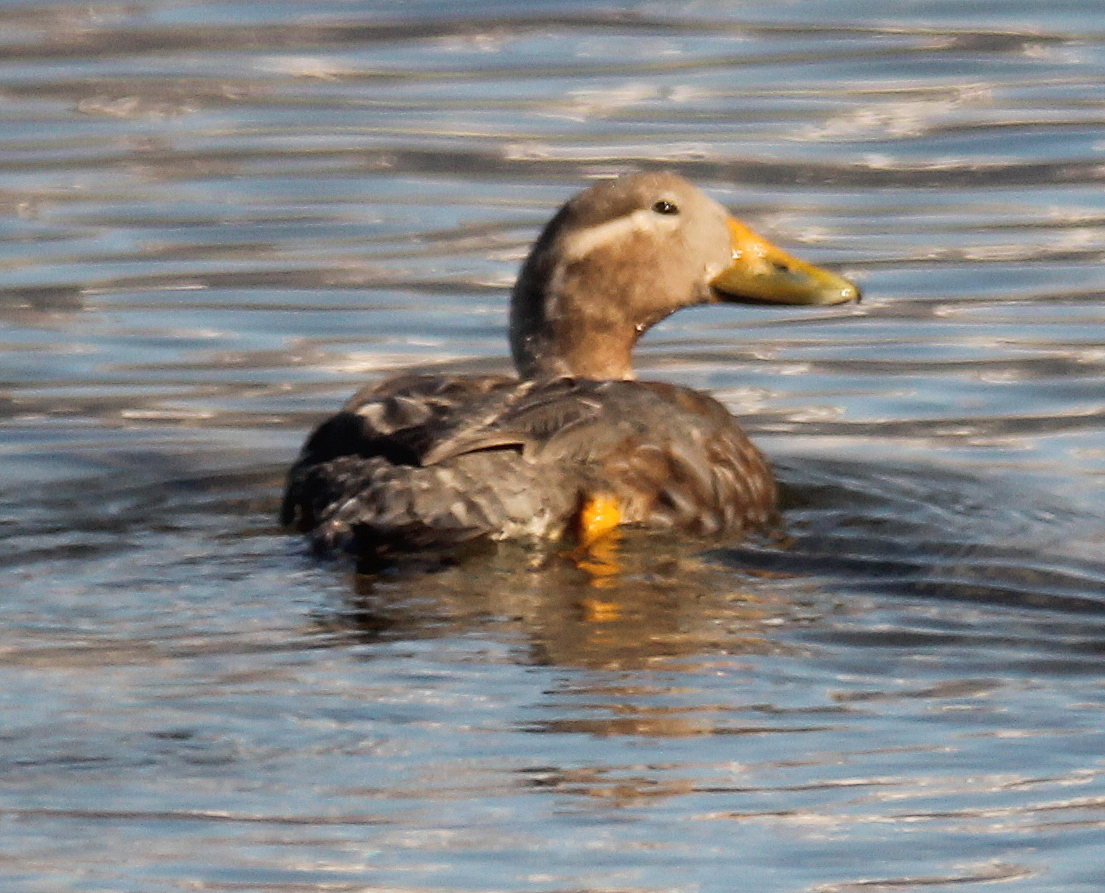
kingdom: Animalia
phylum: Chordata
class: Aves
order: Anseriformes
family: Anatidae
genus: Tachyeres
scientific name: Tachyeres patachonicus
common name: Flying steamer duck
